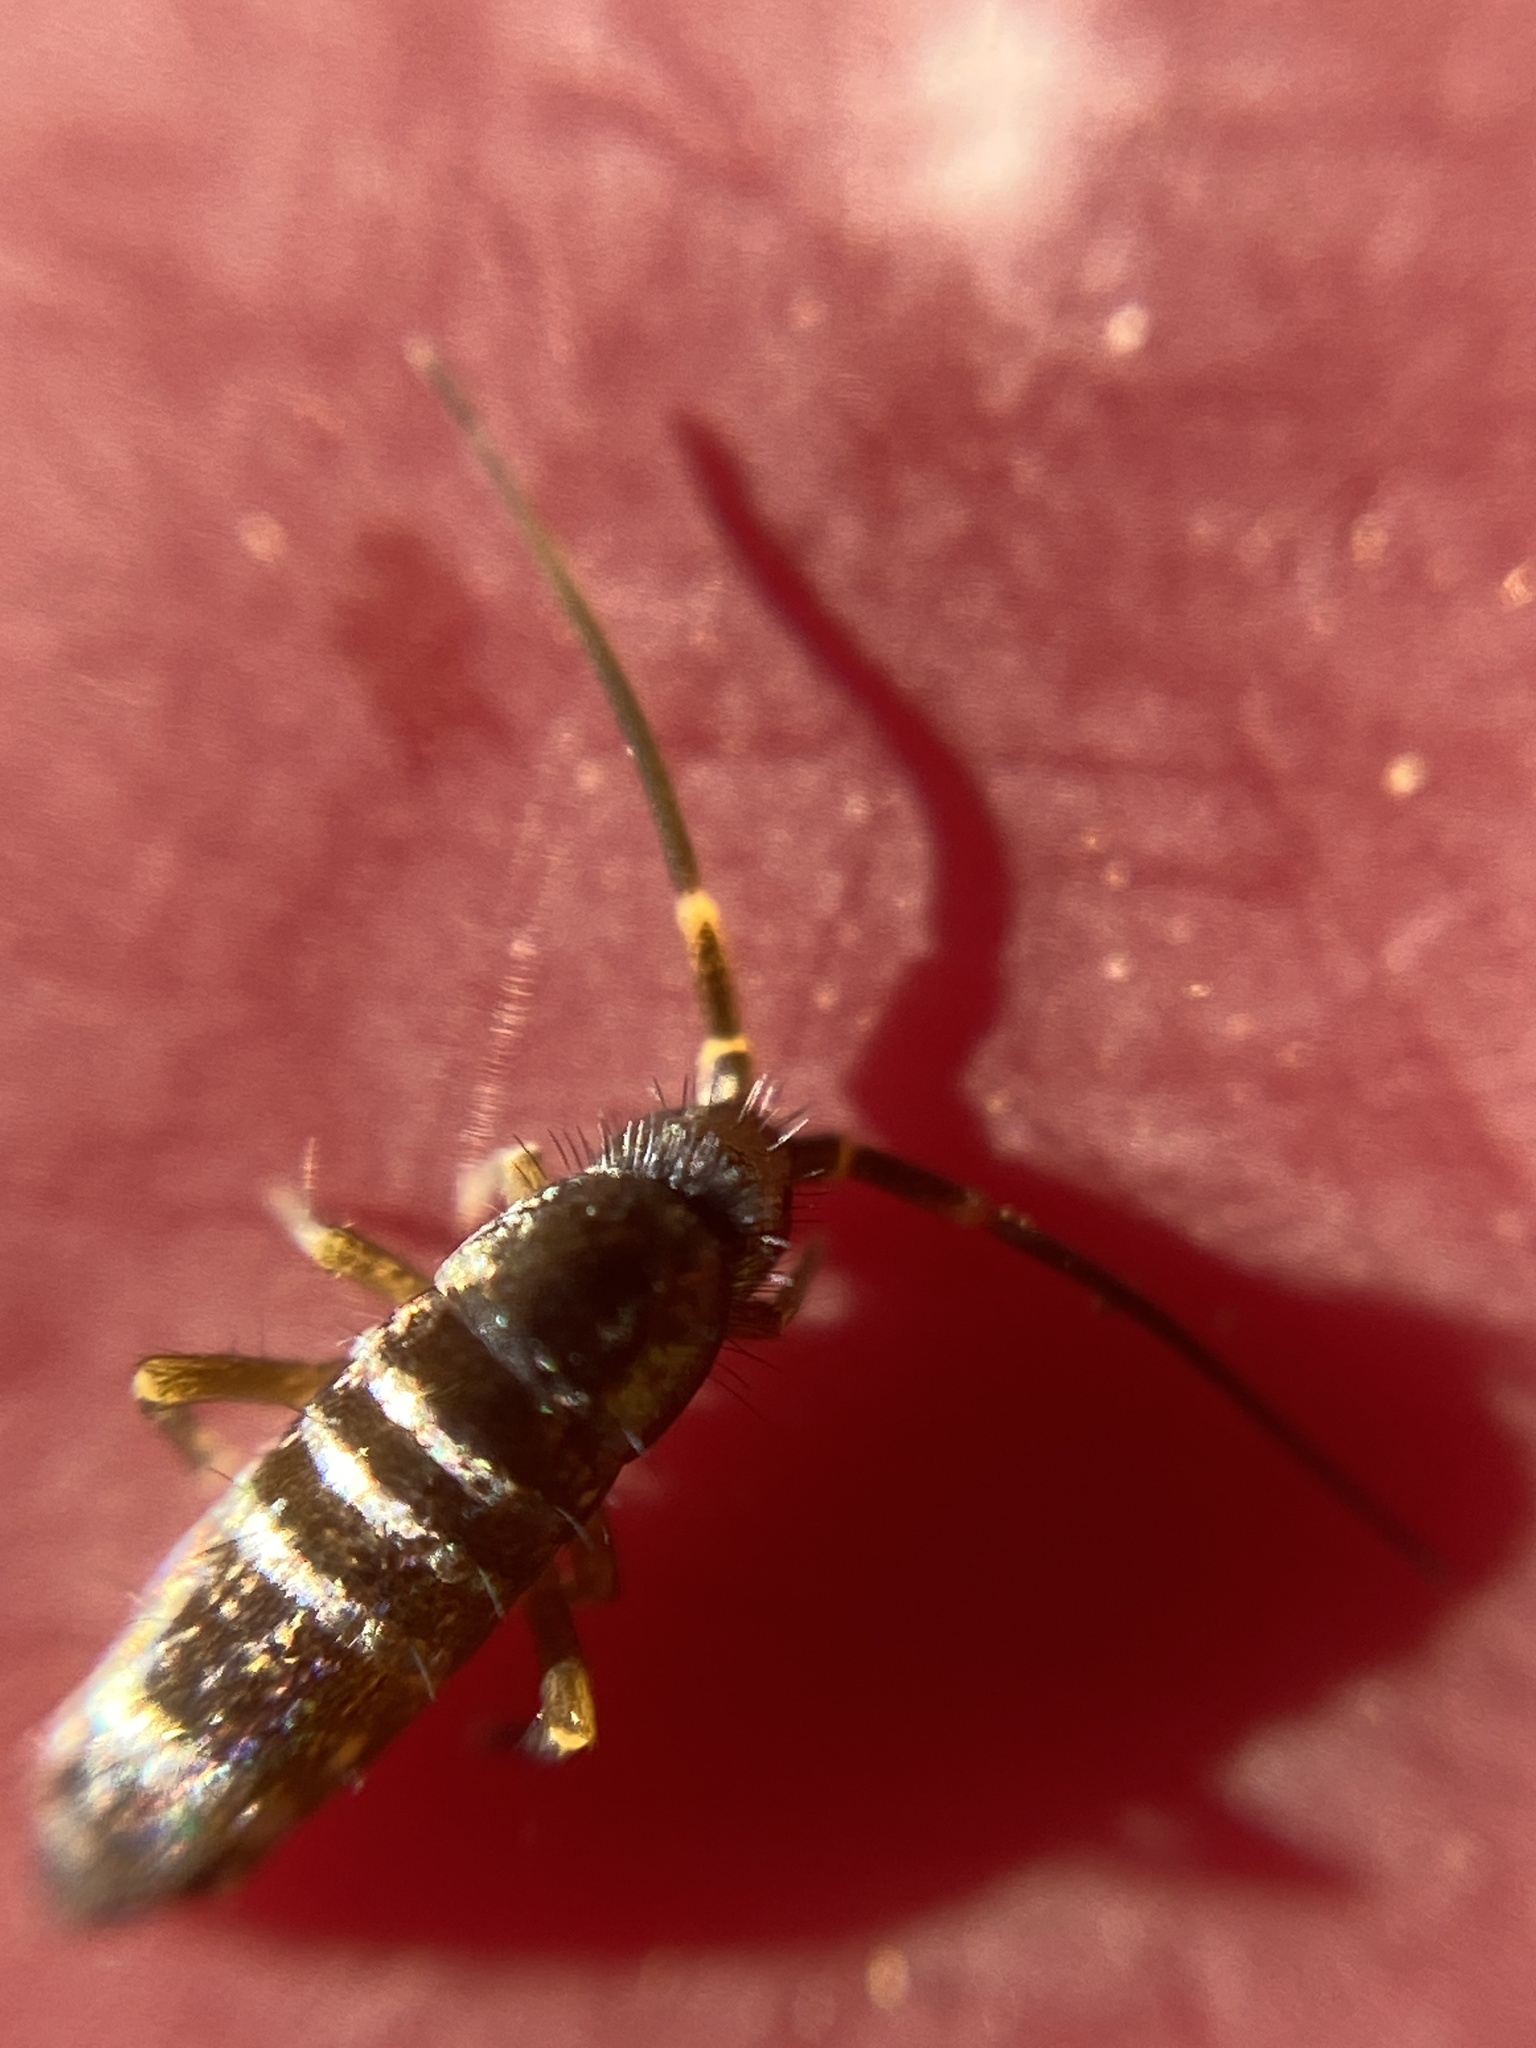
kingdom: Animalia
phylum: Arthropoda
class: Collembola
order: Entomobryomorpha
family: Tomoceridae
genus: Tomocerus
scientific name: Tomocerus vulgaris
